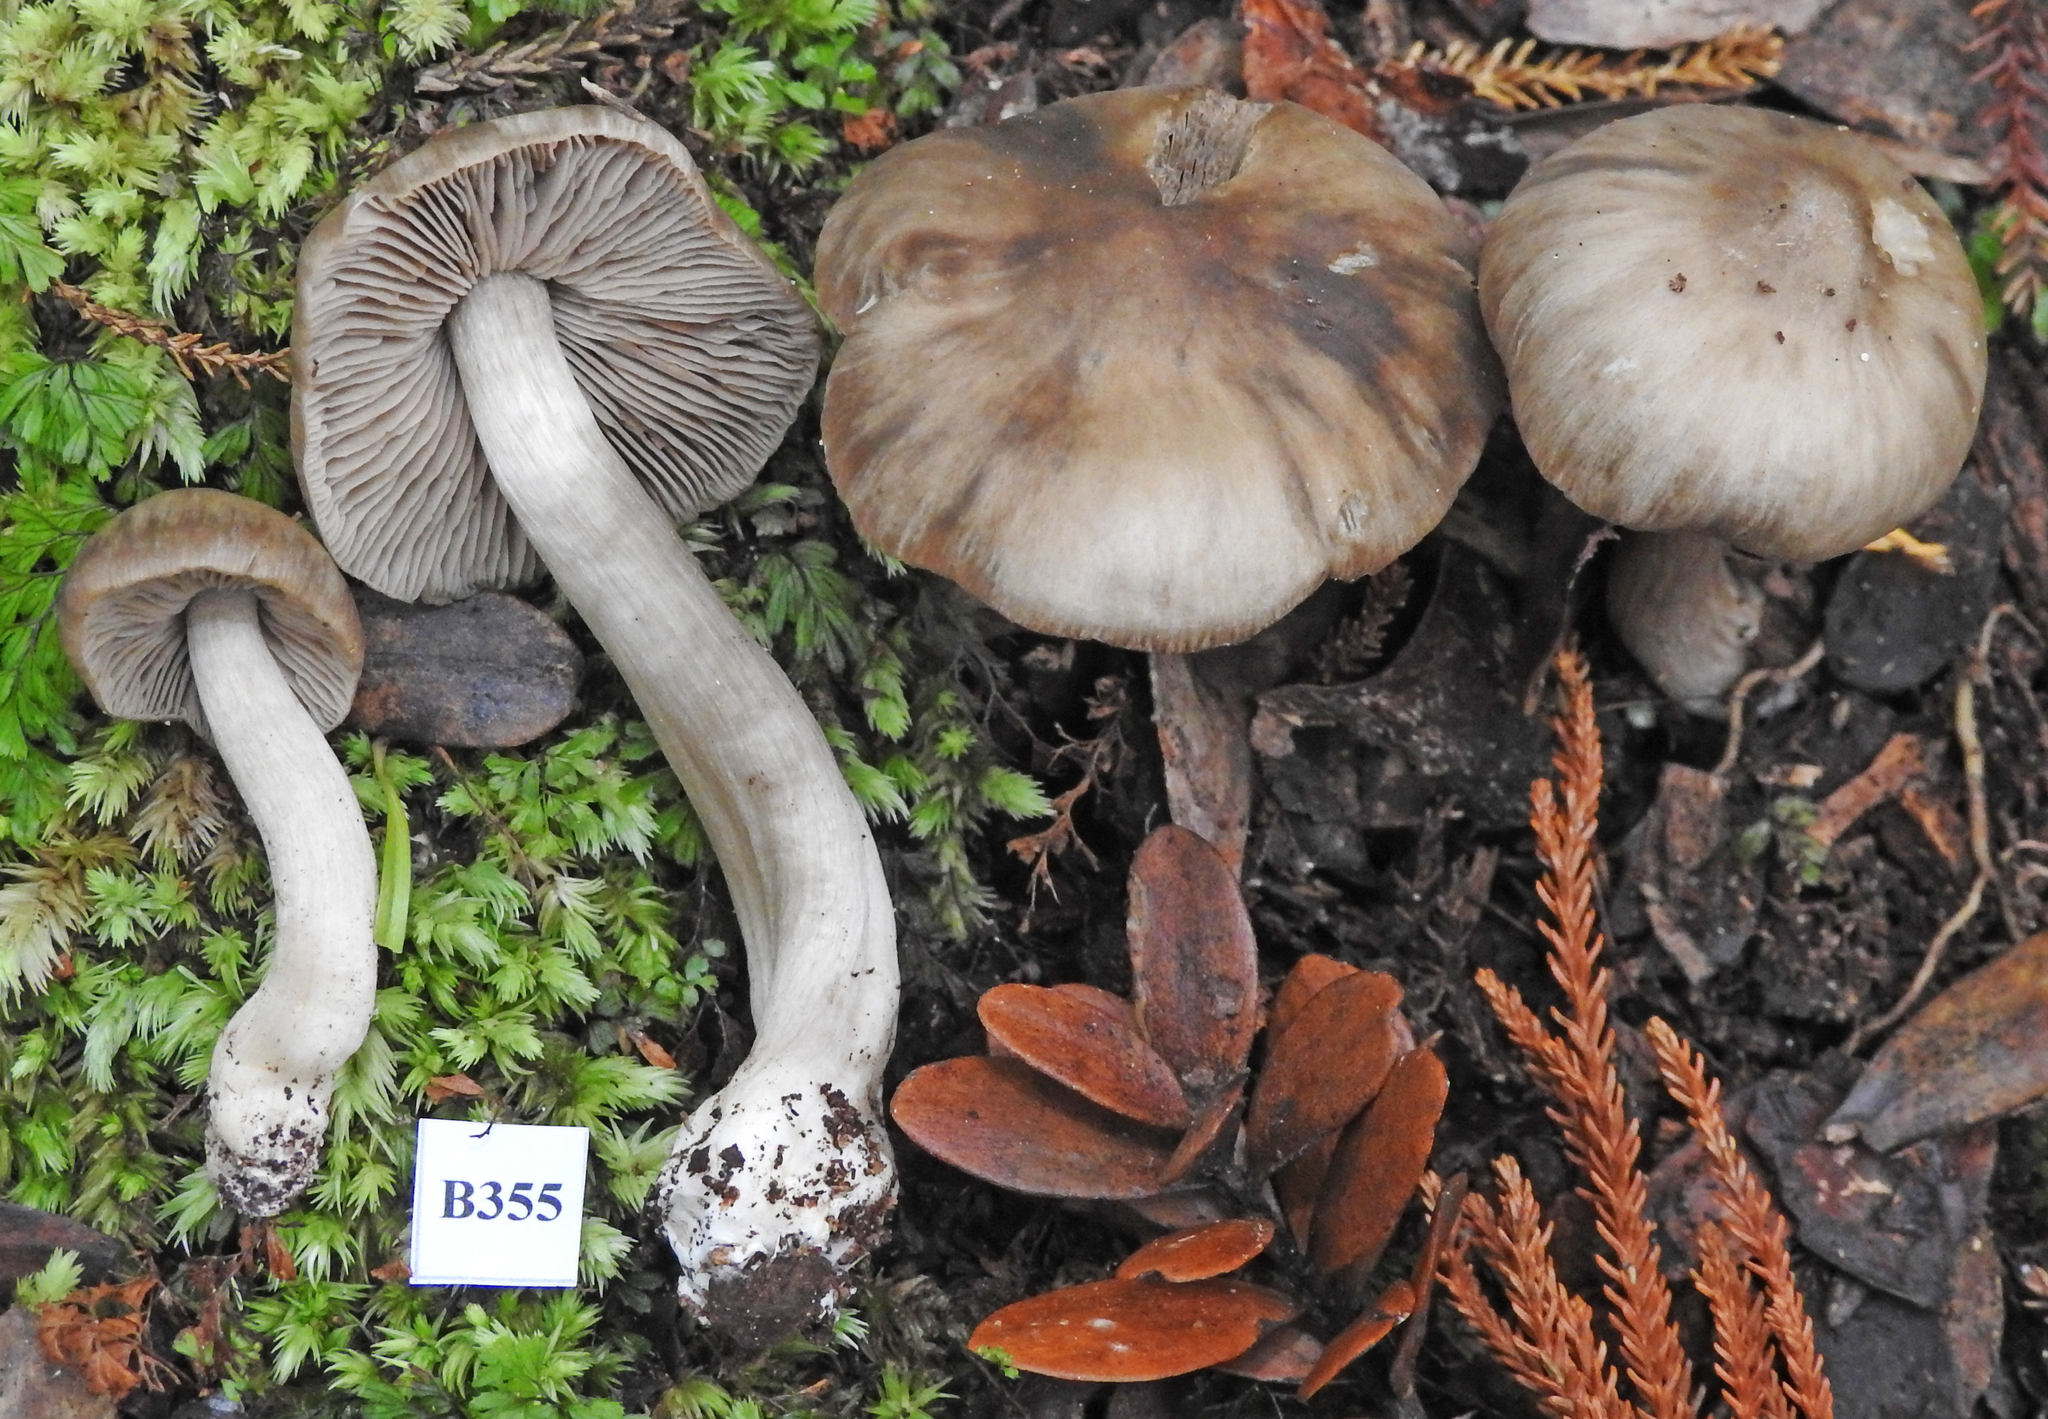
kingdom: Fungi
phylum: Basidiomycota
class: Agaricomycetes
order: Agaricales
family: Entolomataceae
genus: Entoloma
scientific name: Entoloma baronii
